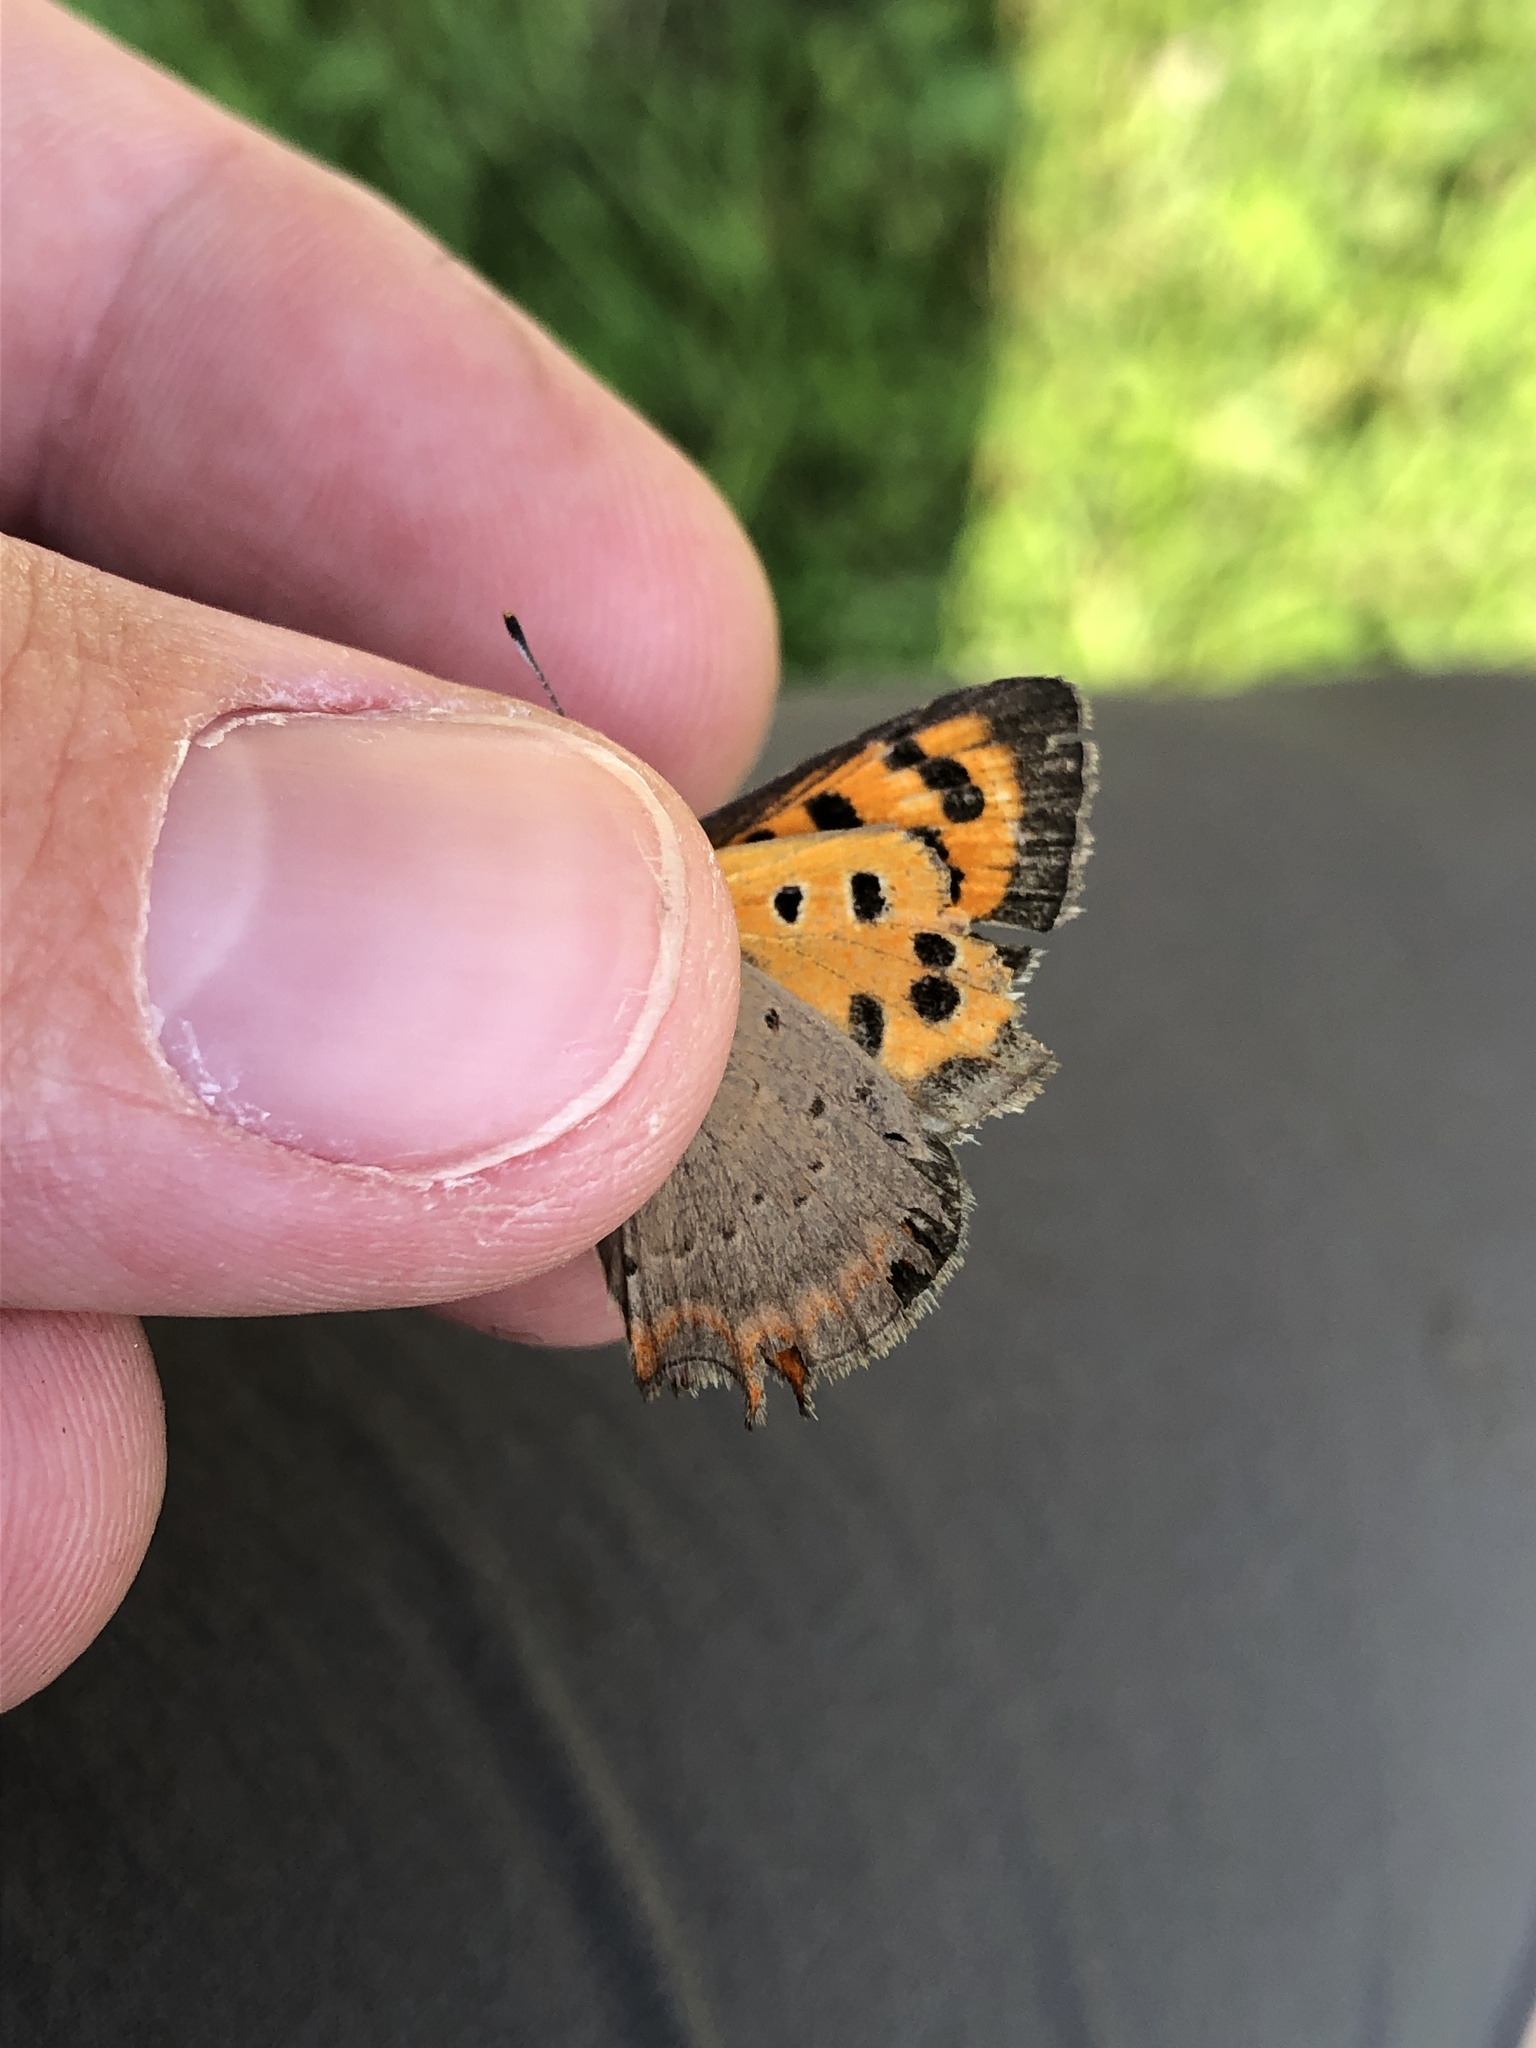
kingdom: Animalia
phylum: Arthropoda
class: Insecta
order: Lepidoptera
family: Lycaenidae
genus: Lycaena
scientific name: Lycaena phlaeas
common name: Small copper
